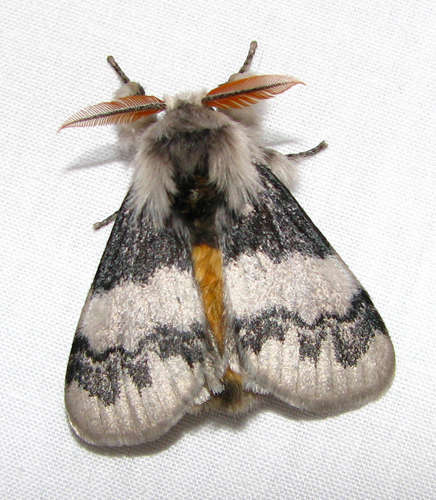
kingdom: Animalia
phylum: Arthropoda
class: Insecta
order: Lepidoptera
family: Erebidae
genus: Iropoca
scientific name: Iropoca rotundata
